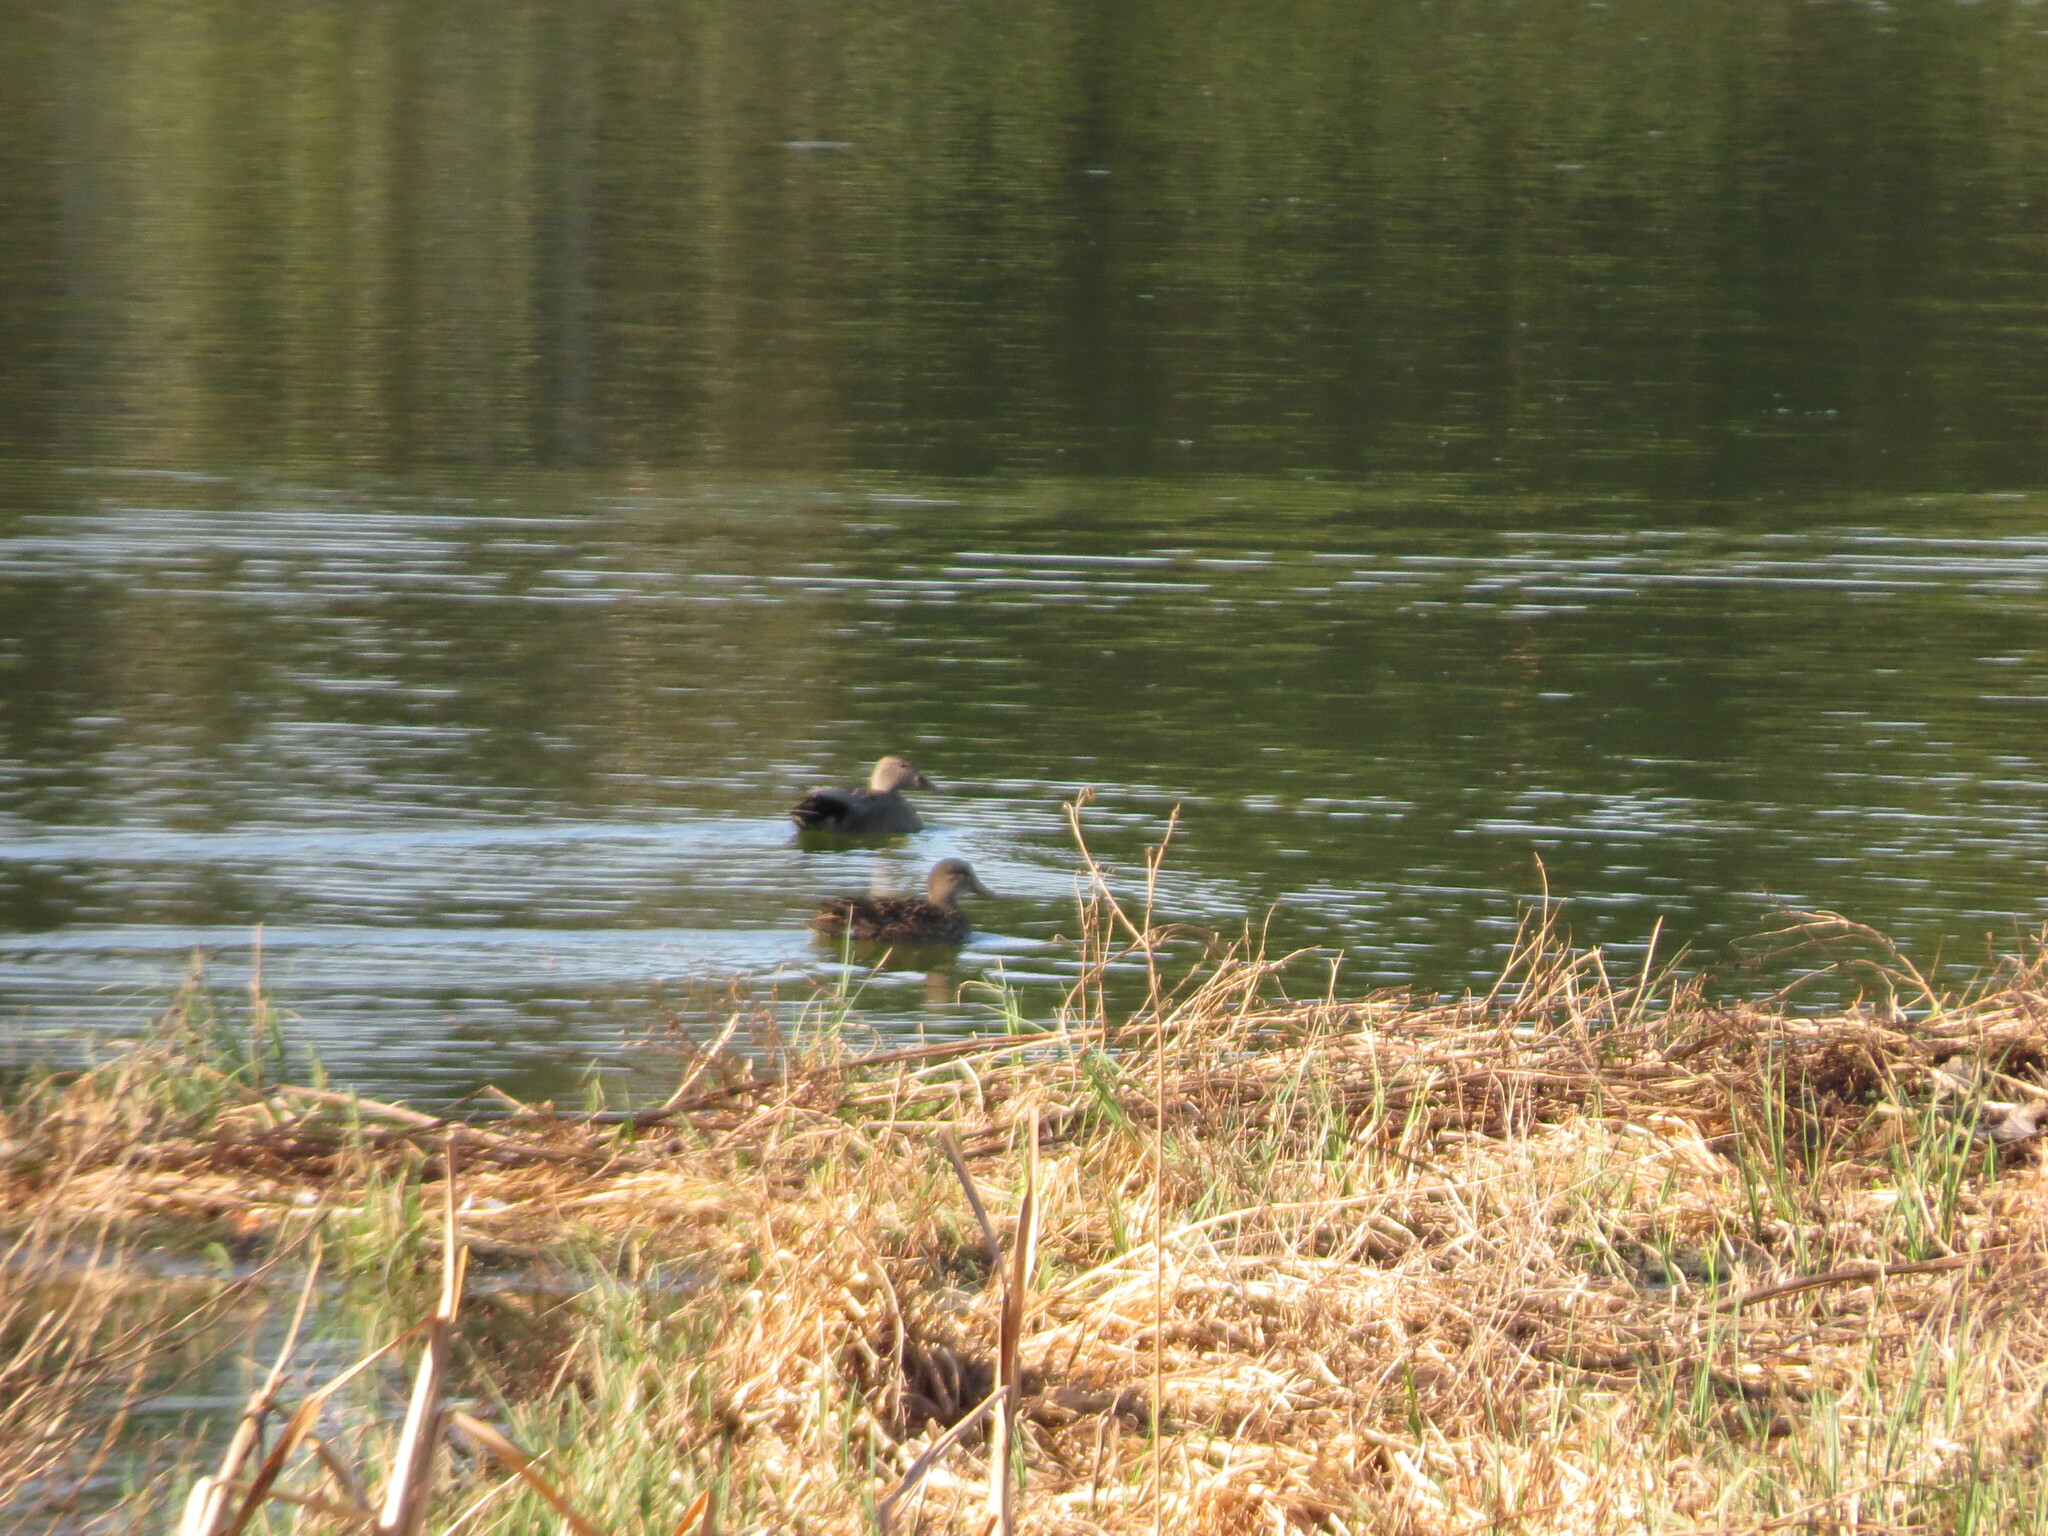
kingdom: Animalia
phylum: Chordata
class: Aves
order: Anseriformes
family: Anatidae
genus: Mareca
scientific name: Mareca strepera
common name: Gadwall
